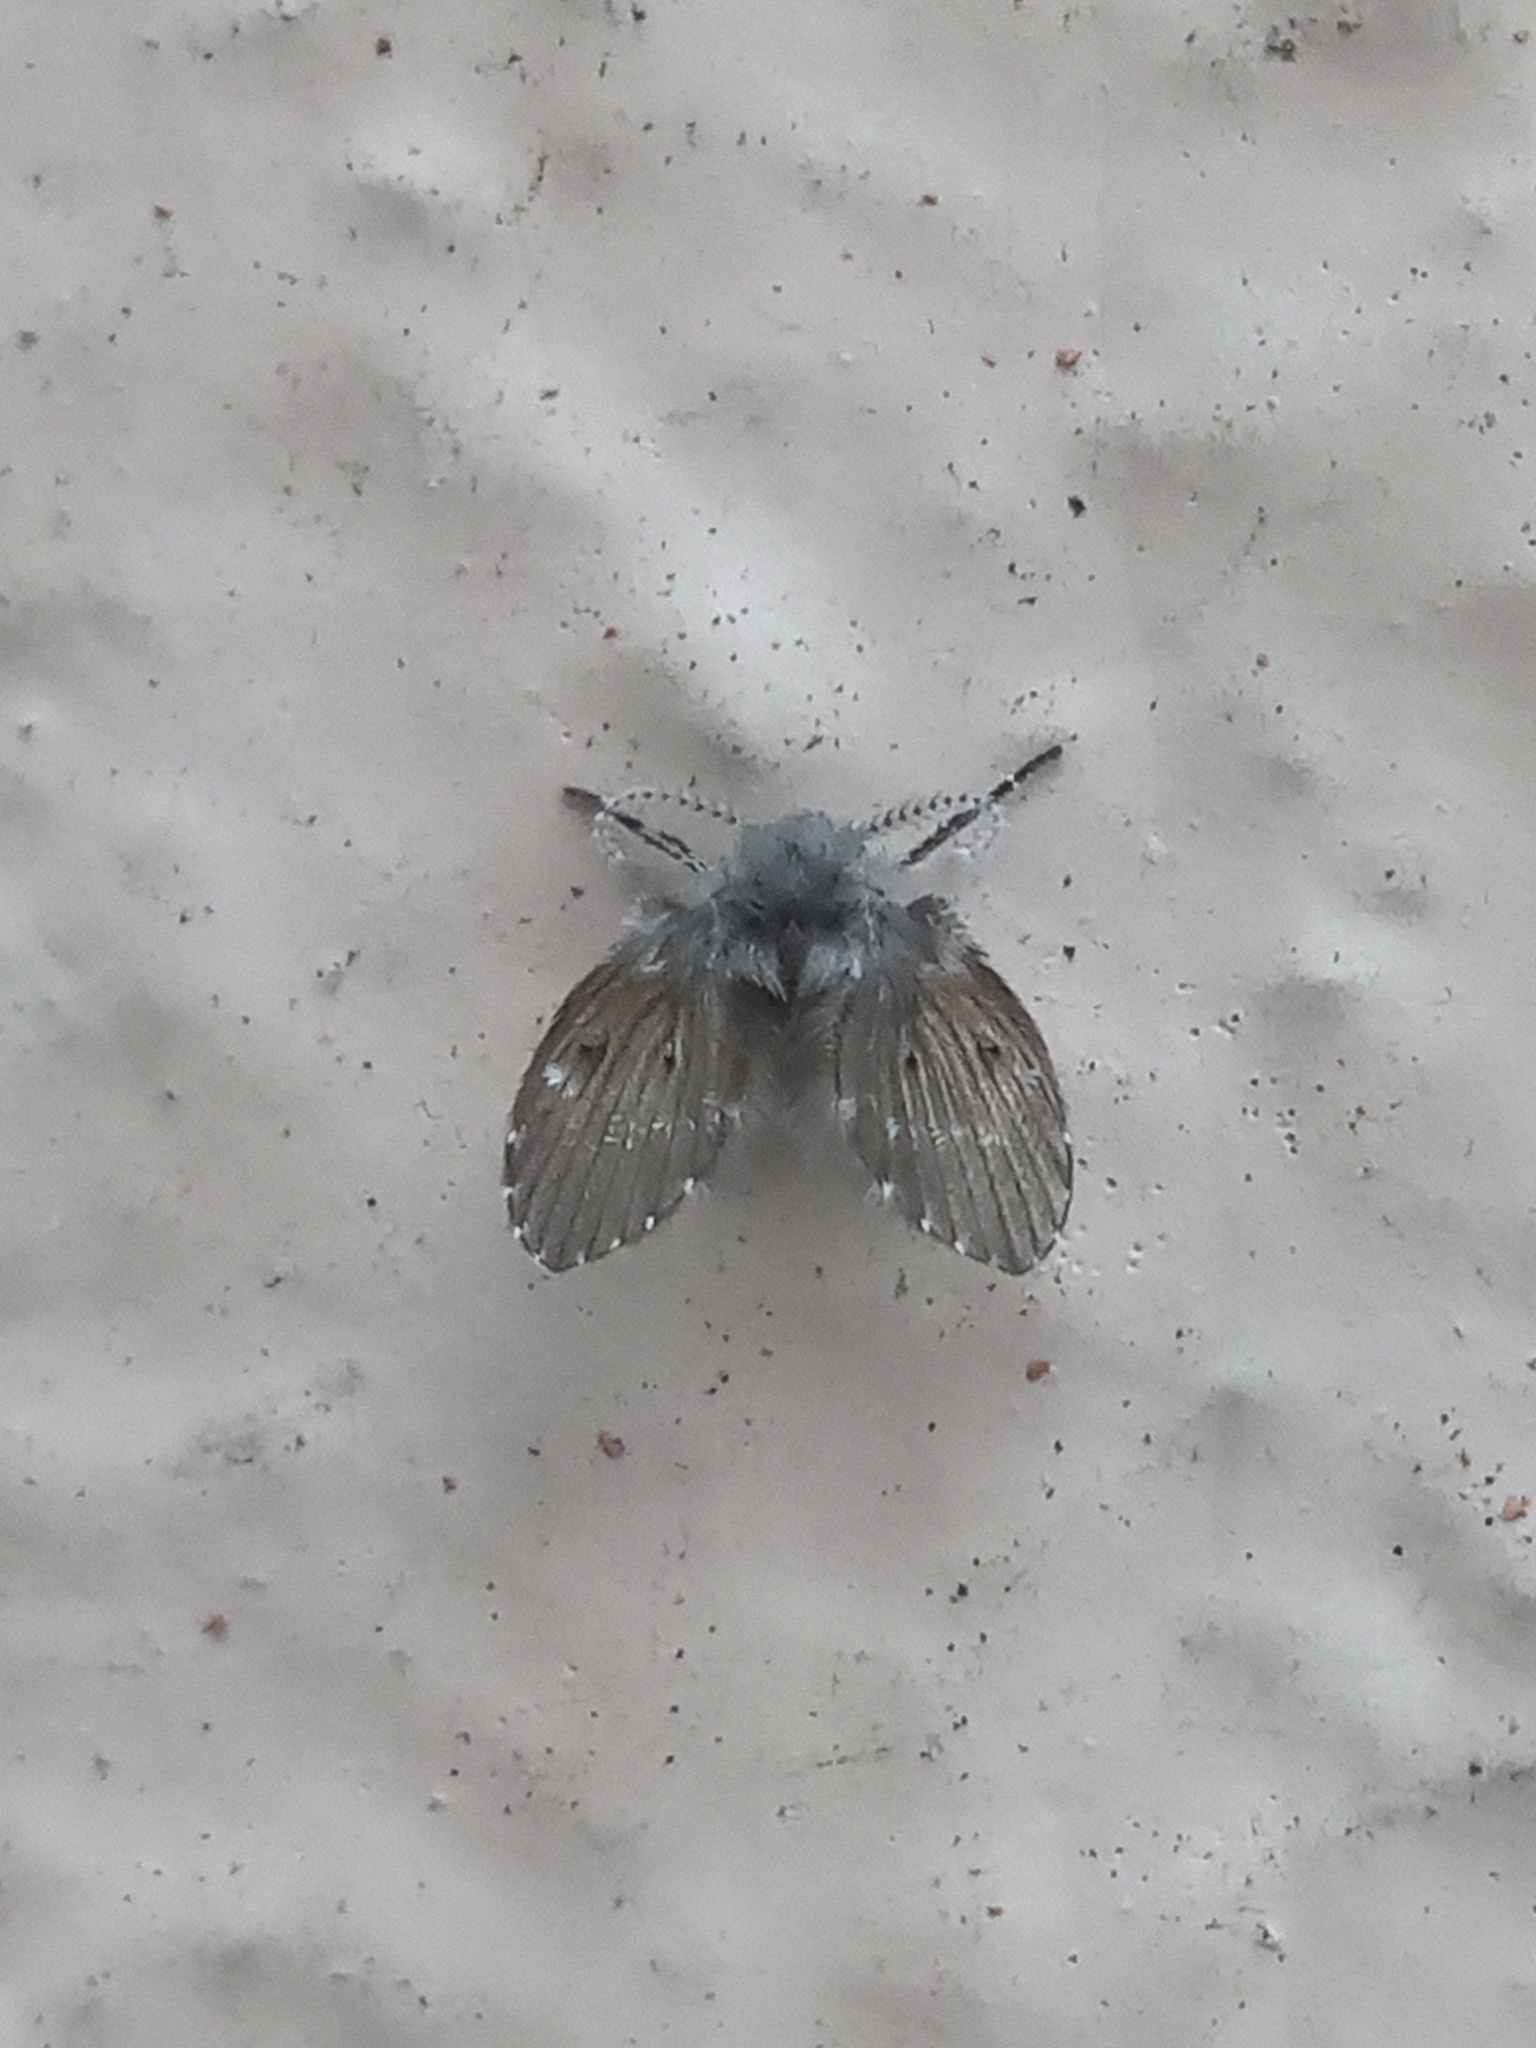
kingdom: Animalia
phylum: Arthropoda
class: Insecta
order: Diptera
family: Psychodidae
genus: Clogmia
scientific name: Clogmia albipunctatus
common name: White-spotted moth fly
